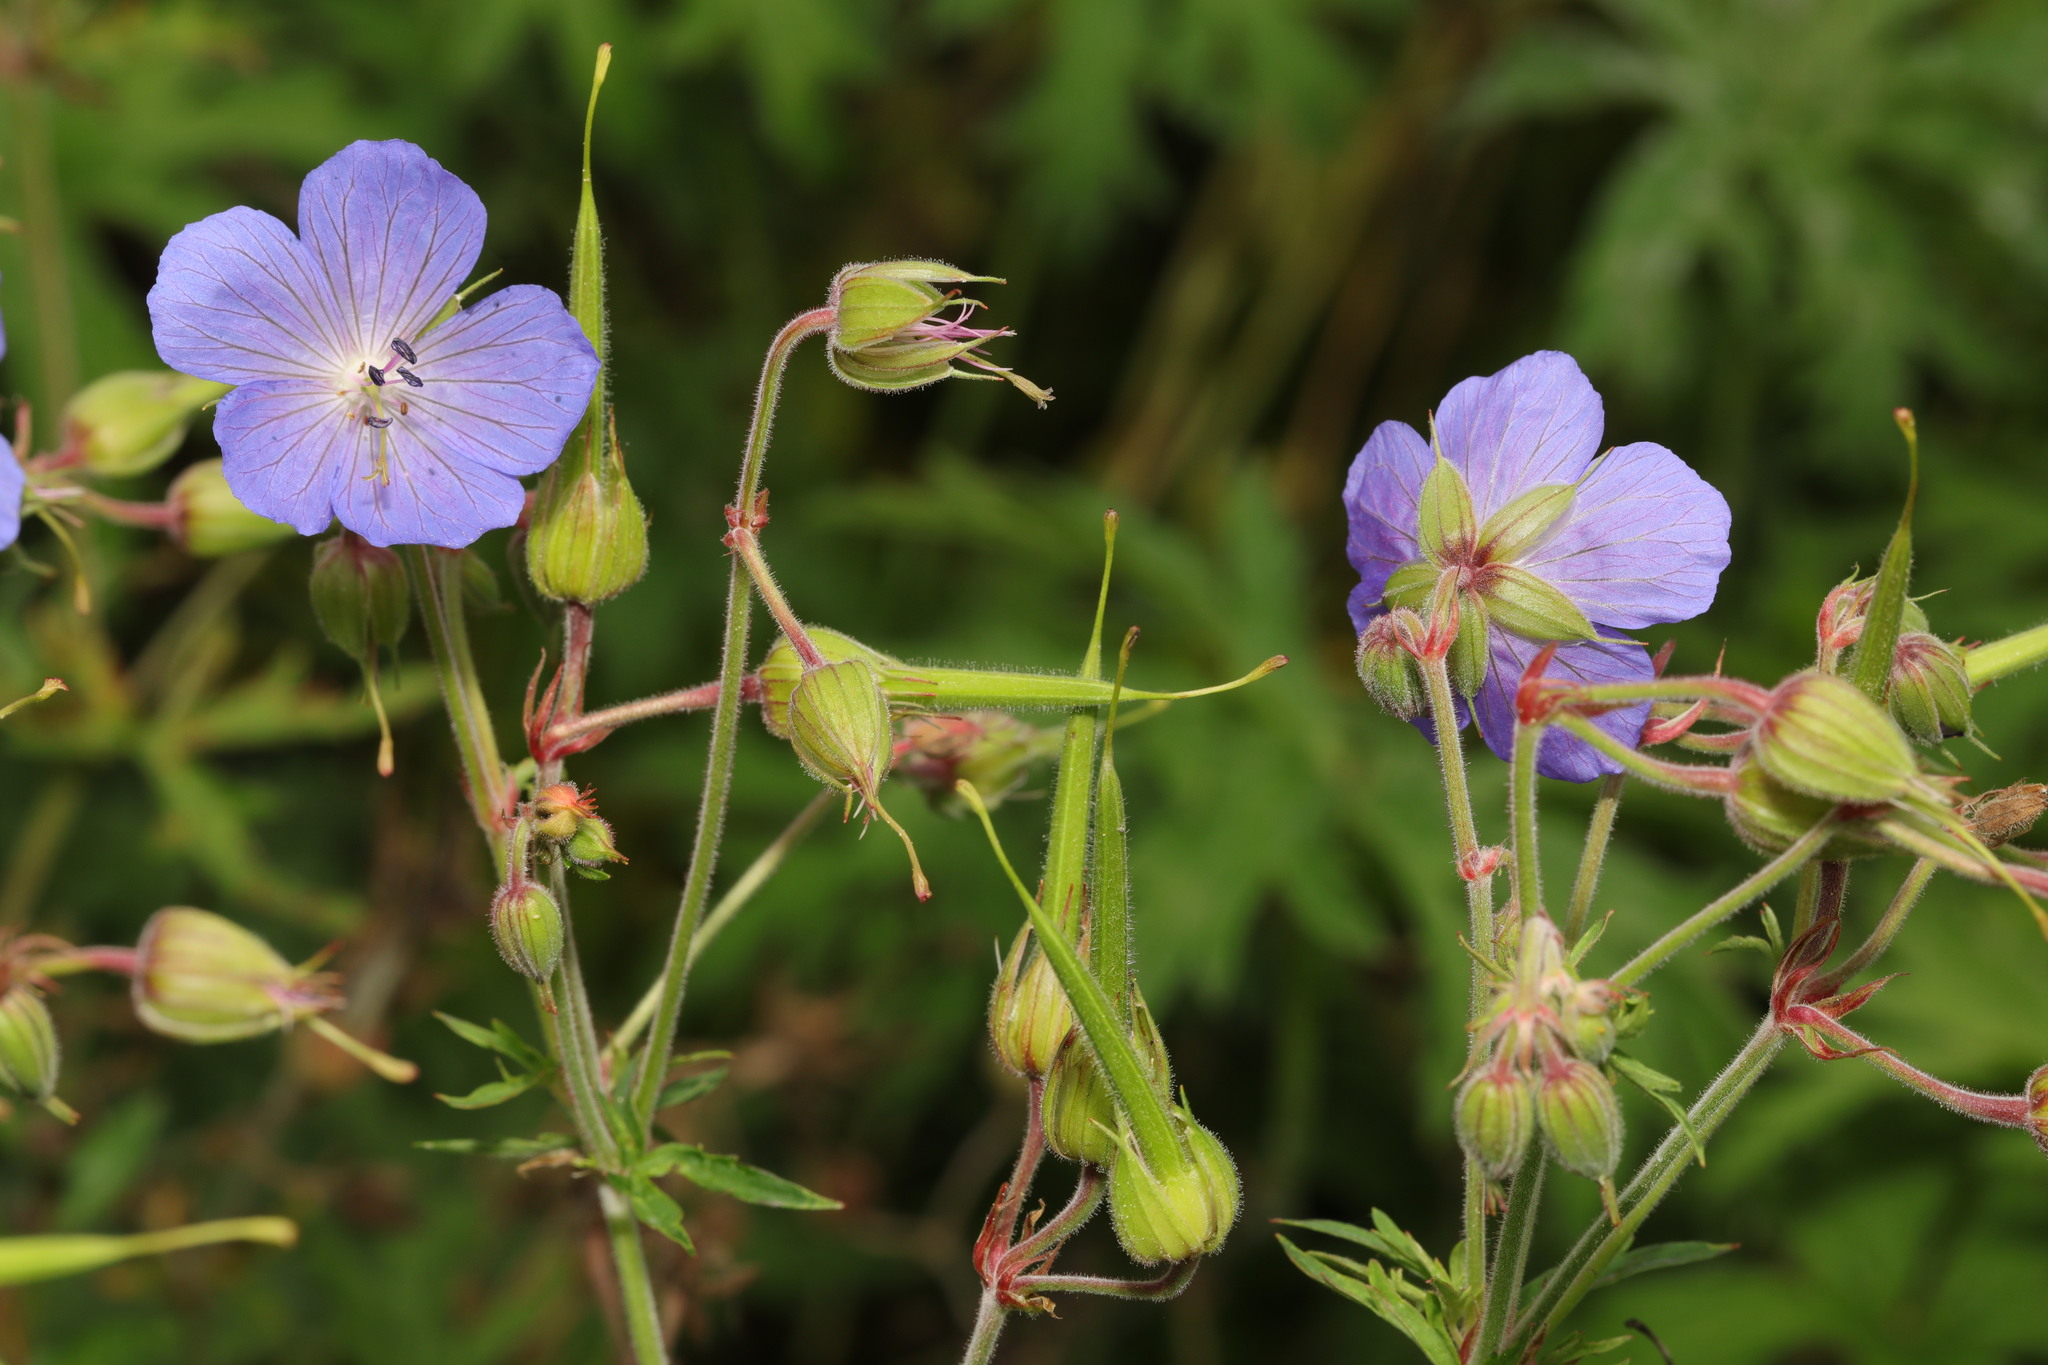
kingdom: Plantae
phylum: Tracheophyta
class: Magnoliopsida
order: Geraniales
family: Geraniaceae
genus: Geranium
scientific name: Geranium pratense
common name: Meadow crane's-bill
